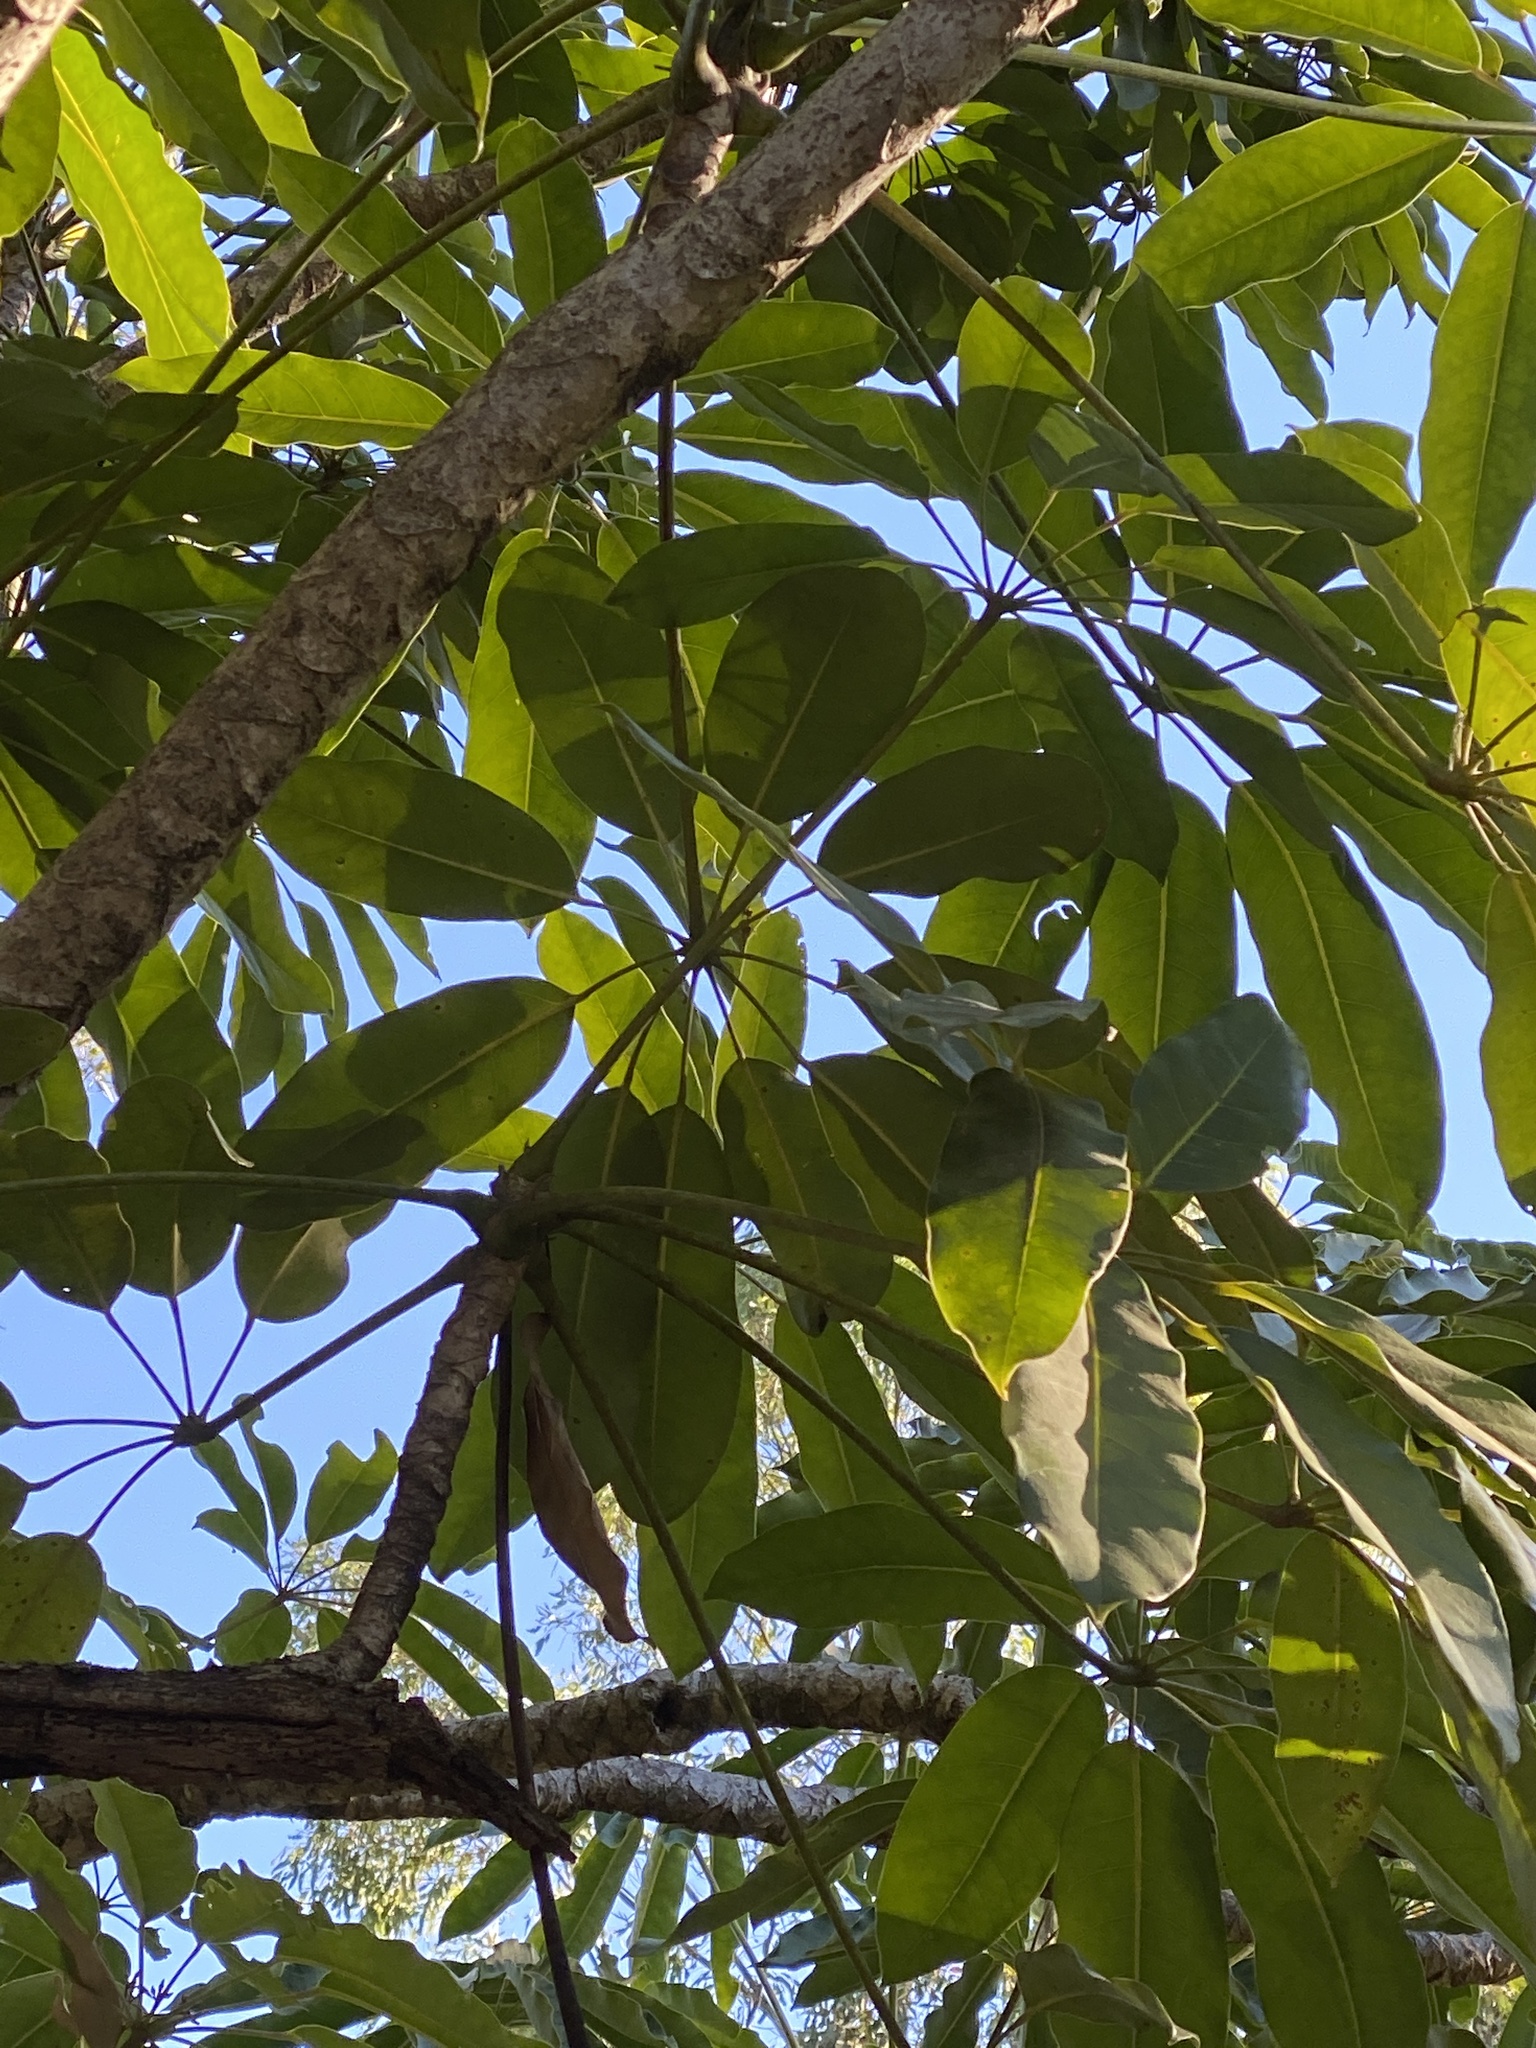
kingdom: Plantae
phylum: Tracheophyta
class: Magnoliopsida
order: Apiales
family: Araliaceae
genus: Heptapleurum
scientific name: Heptapleurum actinophyllum
